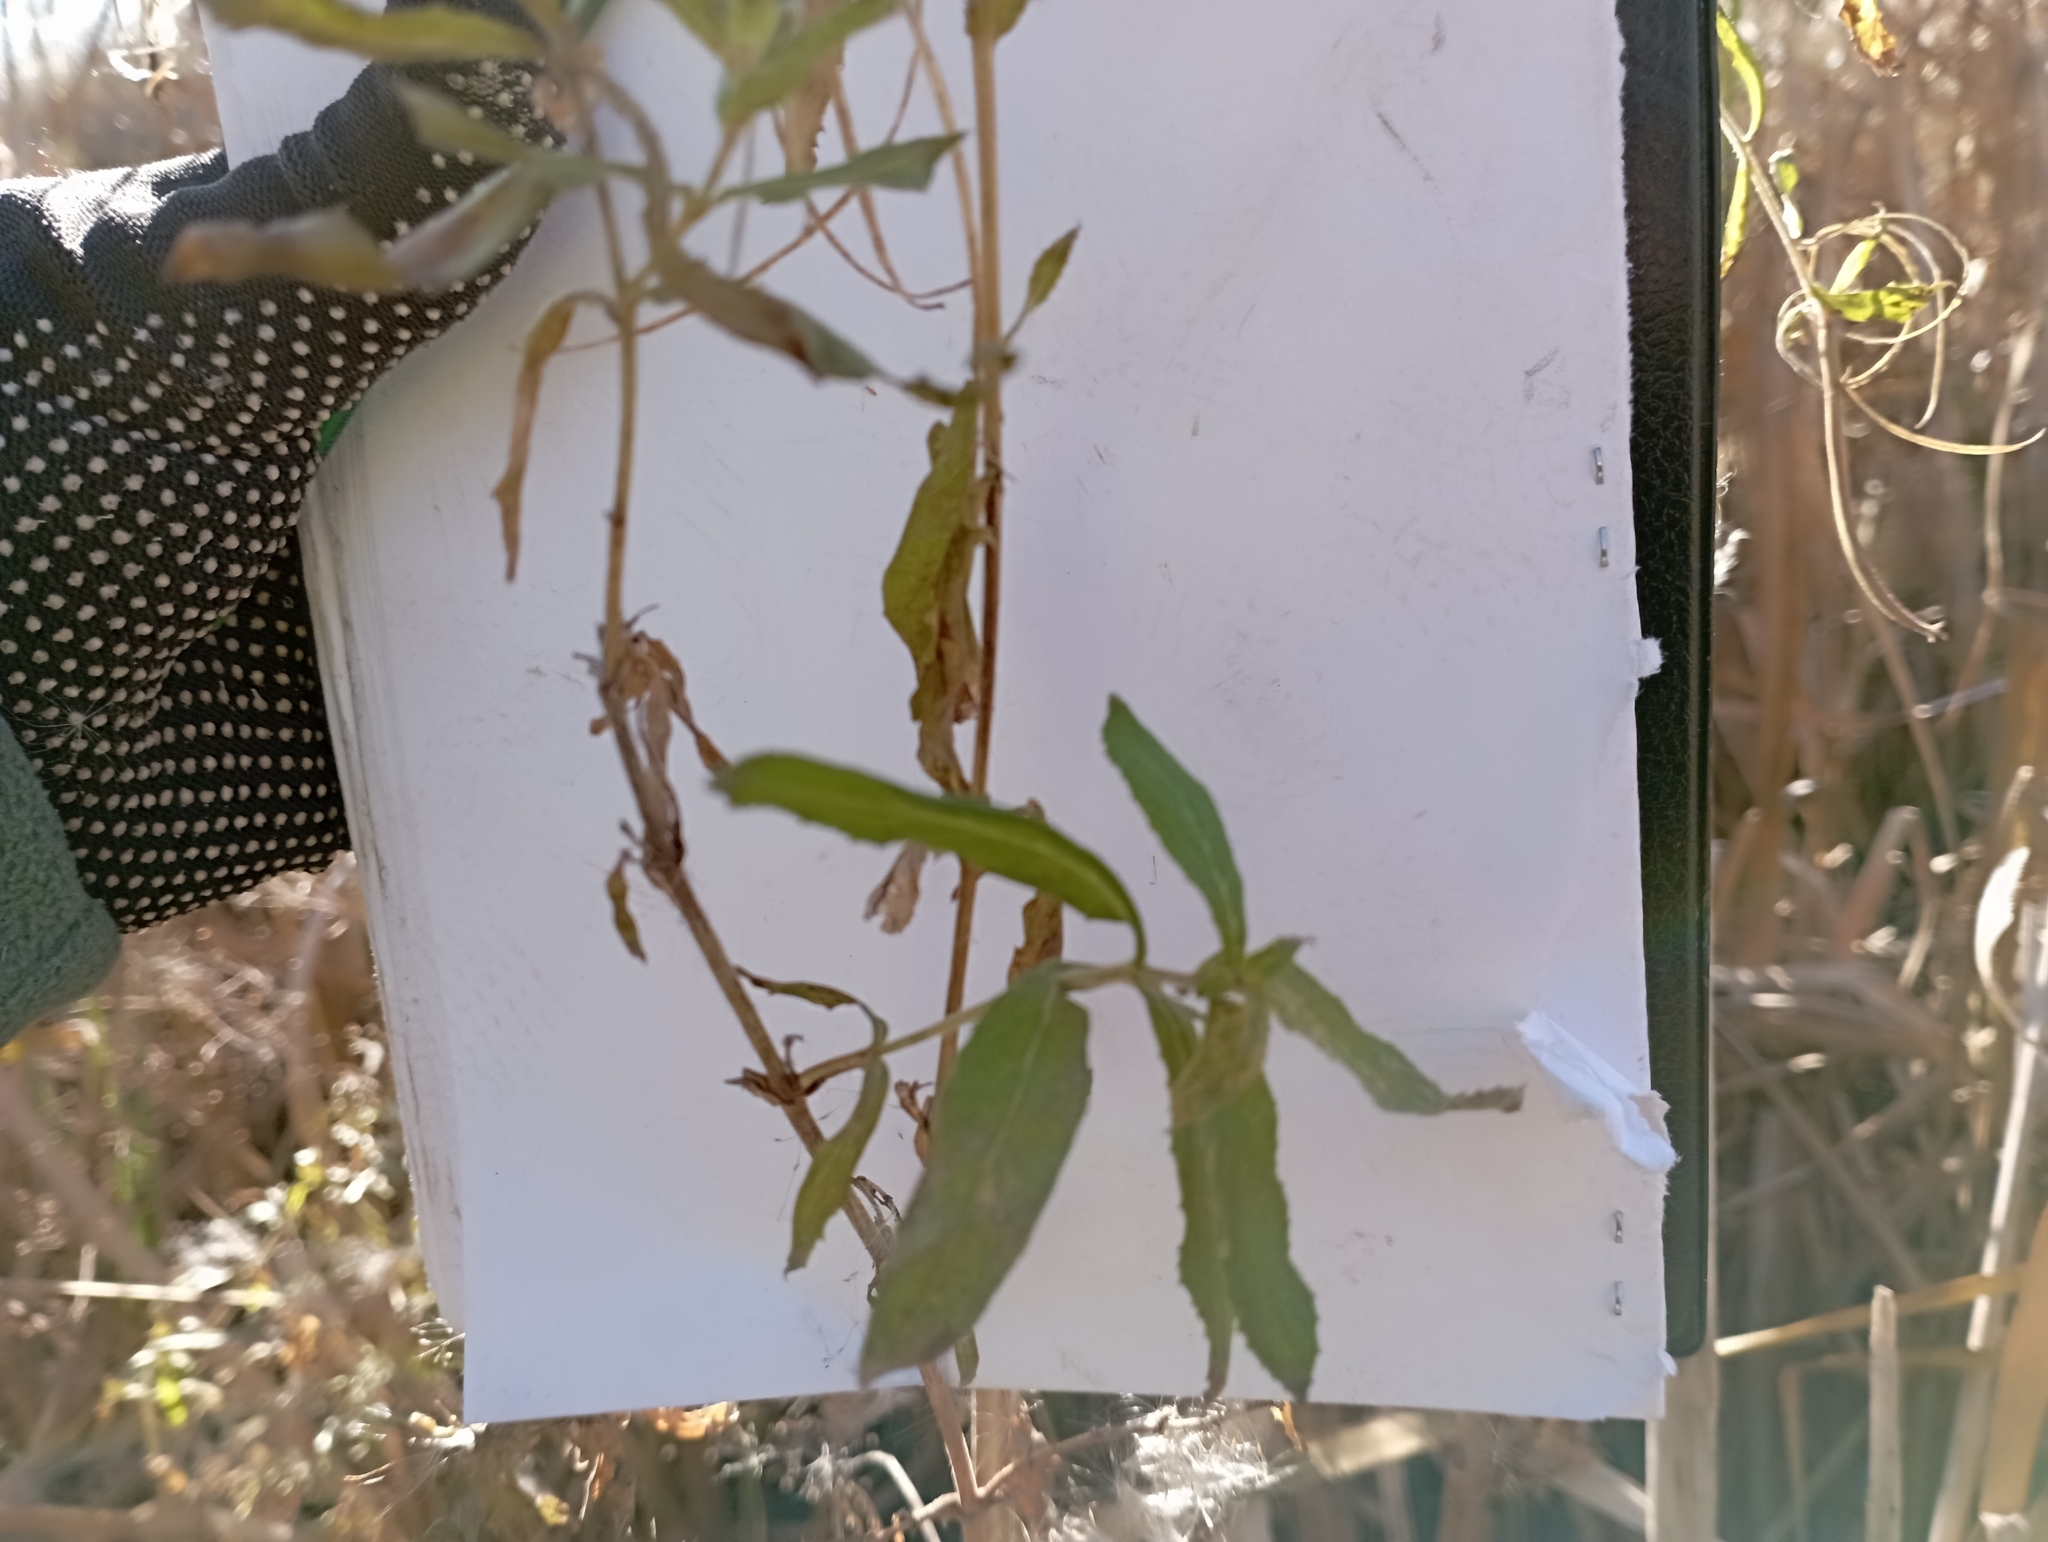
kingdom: Plantae
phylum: Tracheophyta
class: Magnoliopsida
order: Myrtales
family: Onagraceae
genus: Epilobium
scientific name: Epilobium hirsutum
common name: Great willowherb
